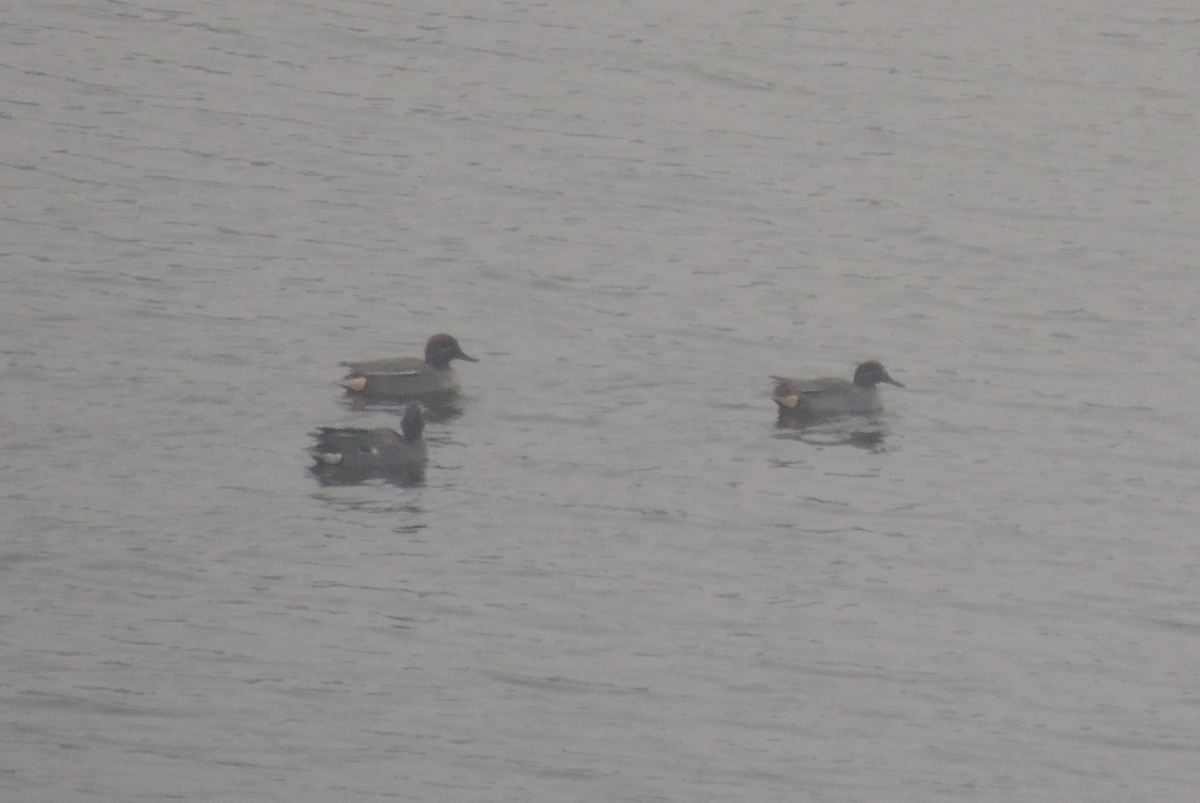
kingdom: Animalia
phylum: Chordata
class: Aves
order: Anseriformes
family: Anatidae
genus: Anas
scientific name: Anas crecca
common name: Eurasian teal
